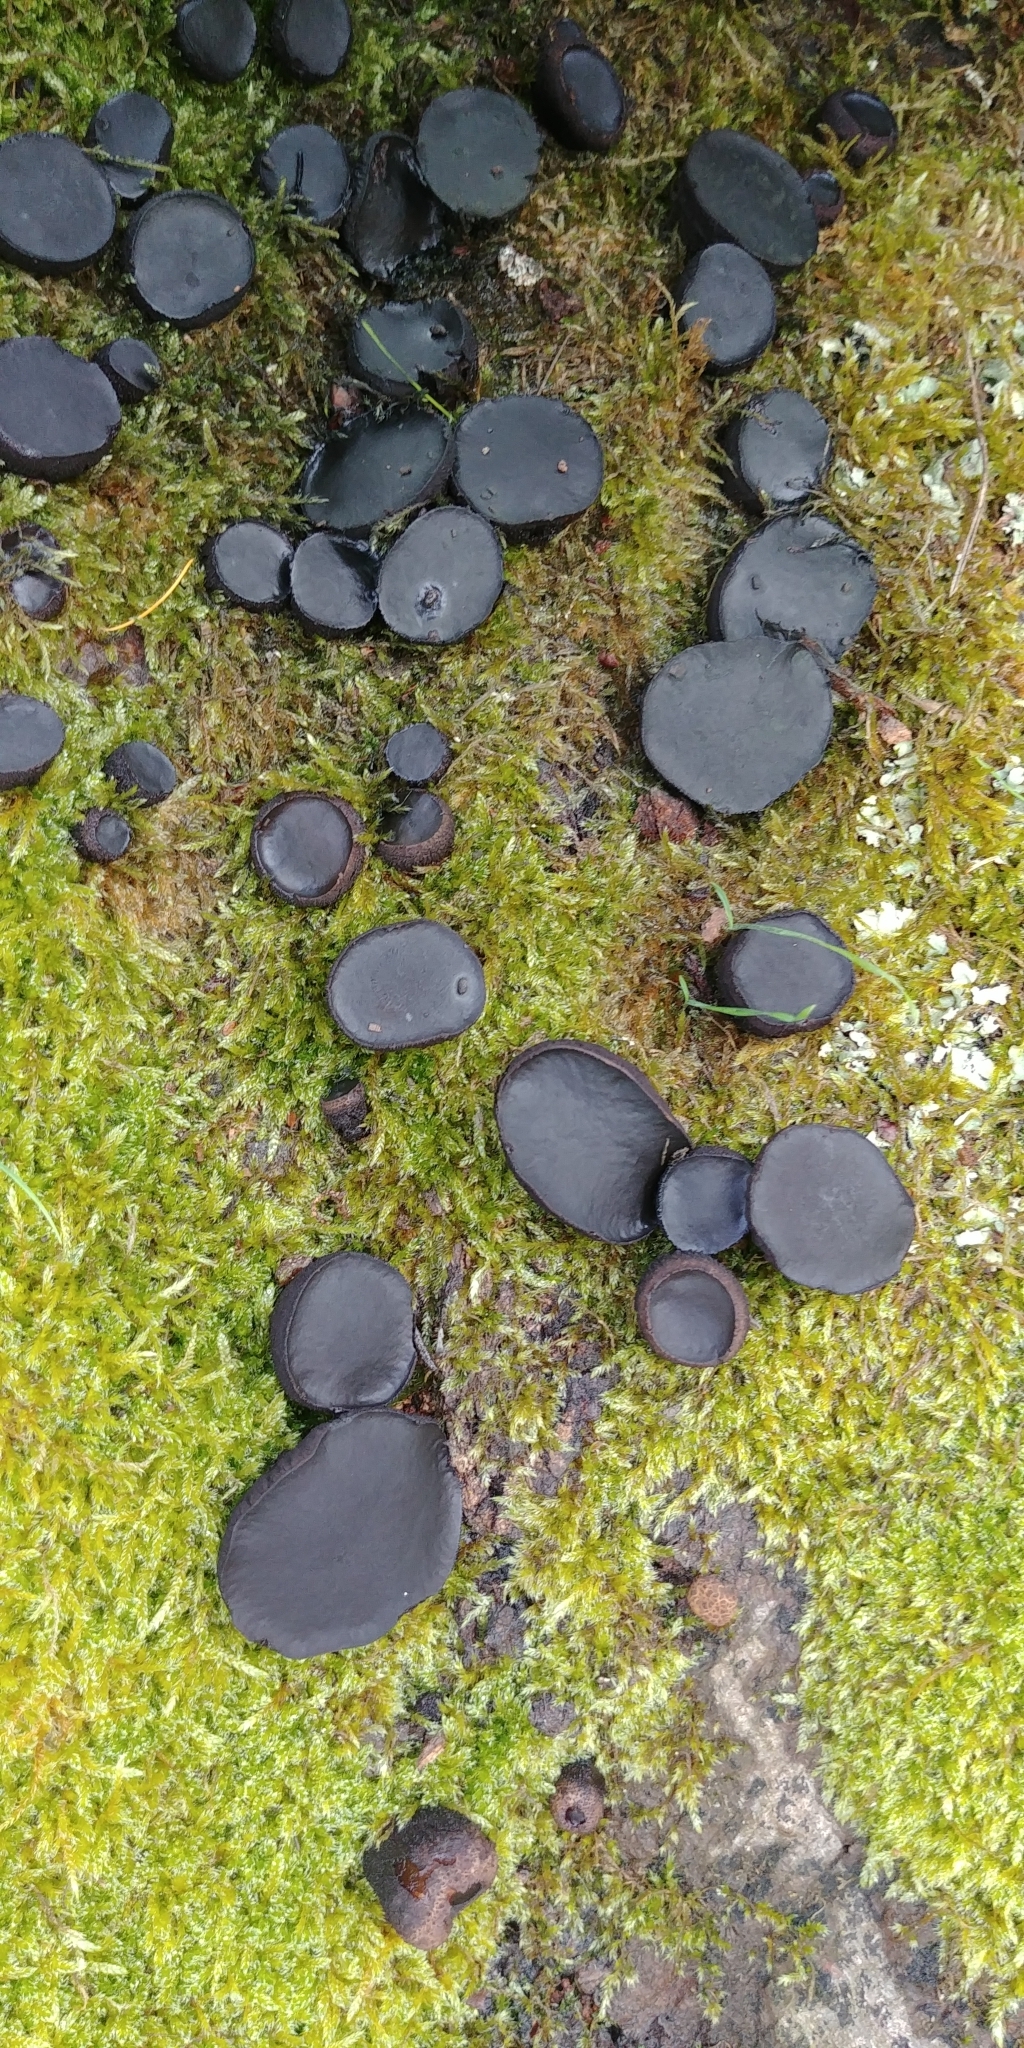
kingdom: Fungi
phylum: Ascomycota
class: Leotiomycetes
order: Phacidiales
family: Phacidiaceae
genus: Bulgaria
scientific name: Bulgaria inquinans
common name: Black bulgar
